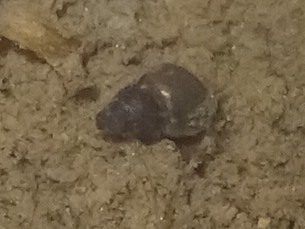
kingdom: Animalia
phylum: Mollusca
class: Gastropoda
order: Littorinimorpha
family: Tateidae
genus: Potamopyrgus
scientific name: Potamopyrgus antipodarum
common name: Jenkins' spire snail
